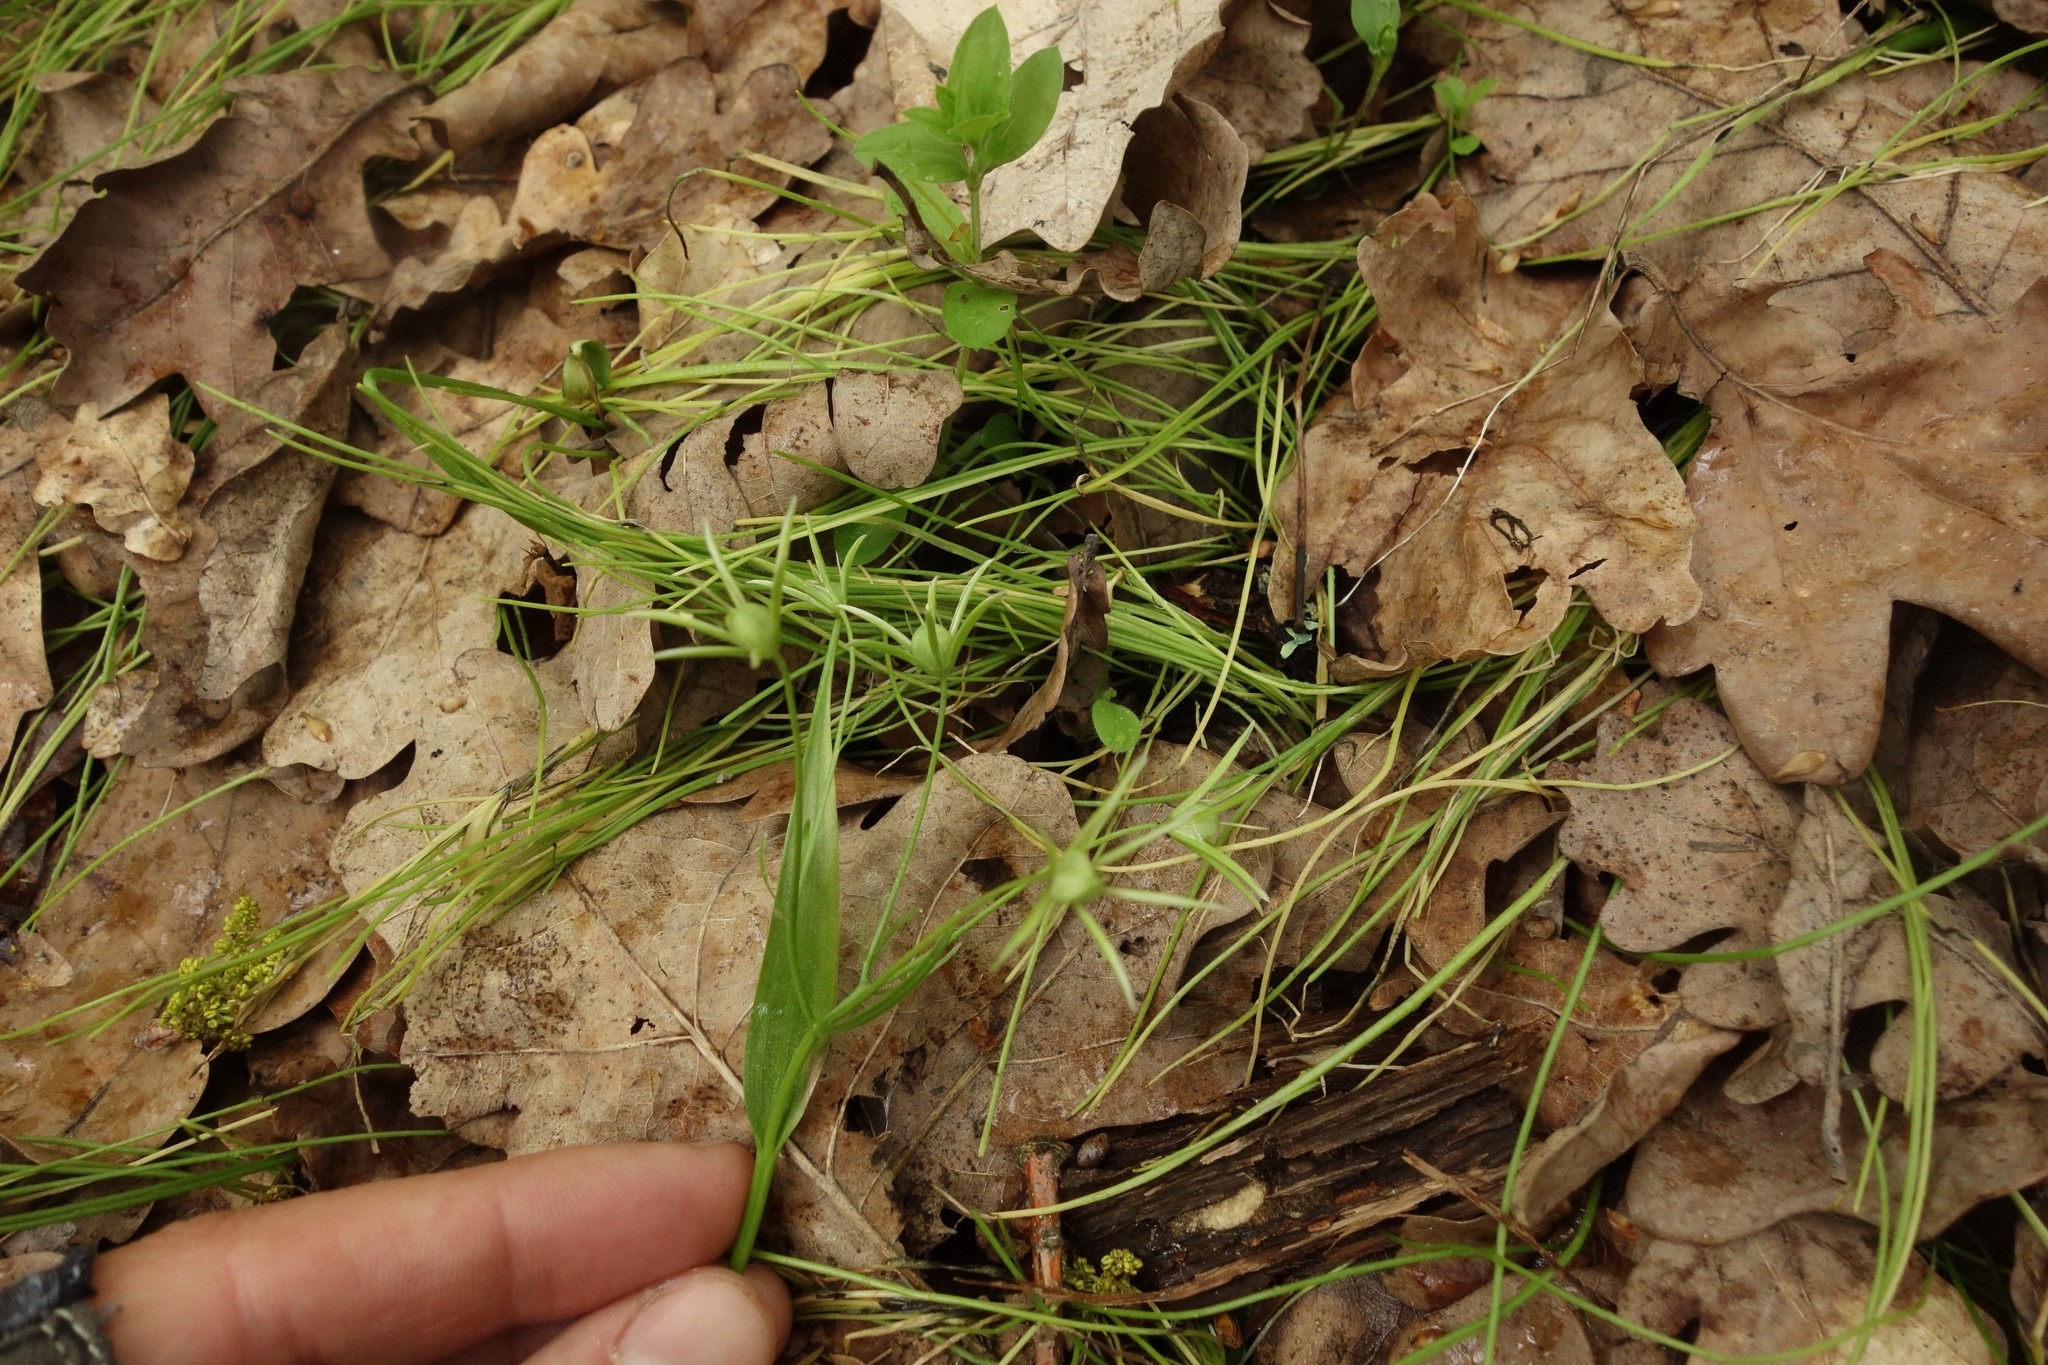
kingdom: Plantae
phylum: Tracheophyta
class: Liliopsida
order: Liliales
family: Liliaceae
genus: Gagea
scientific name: Gagea minima
